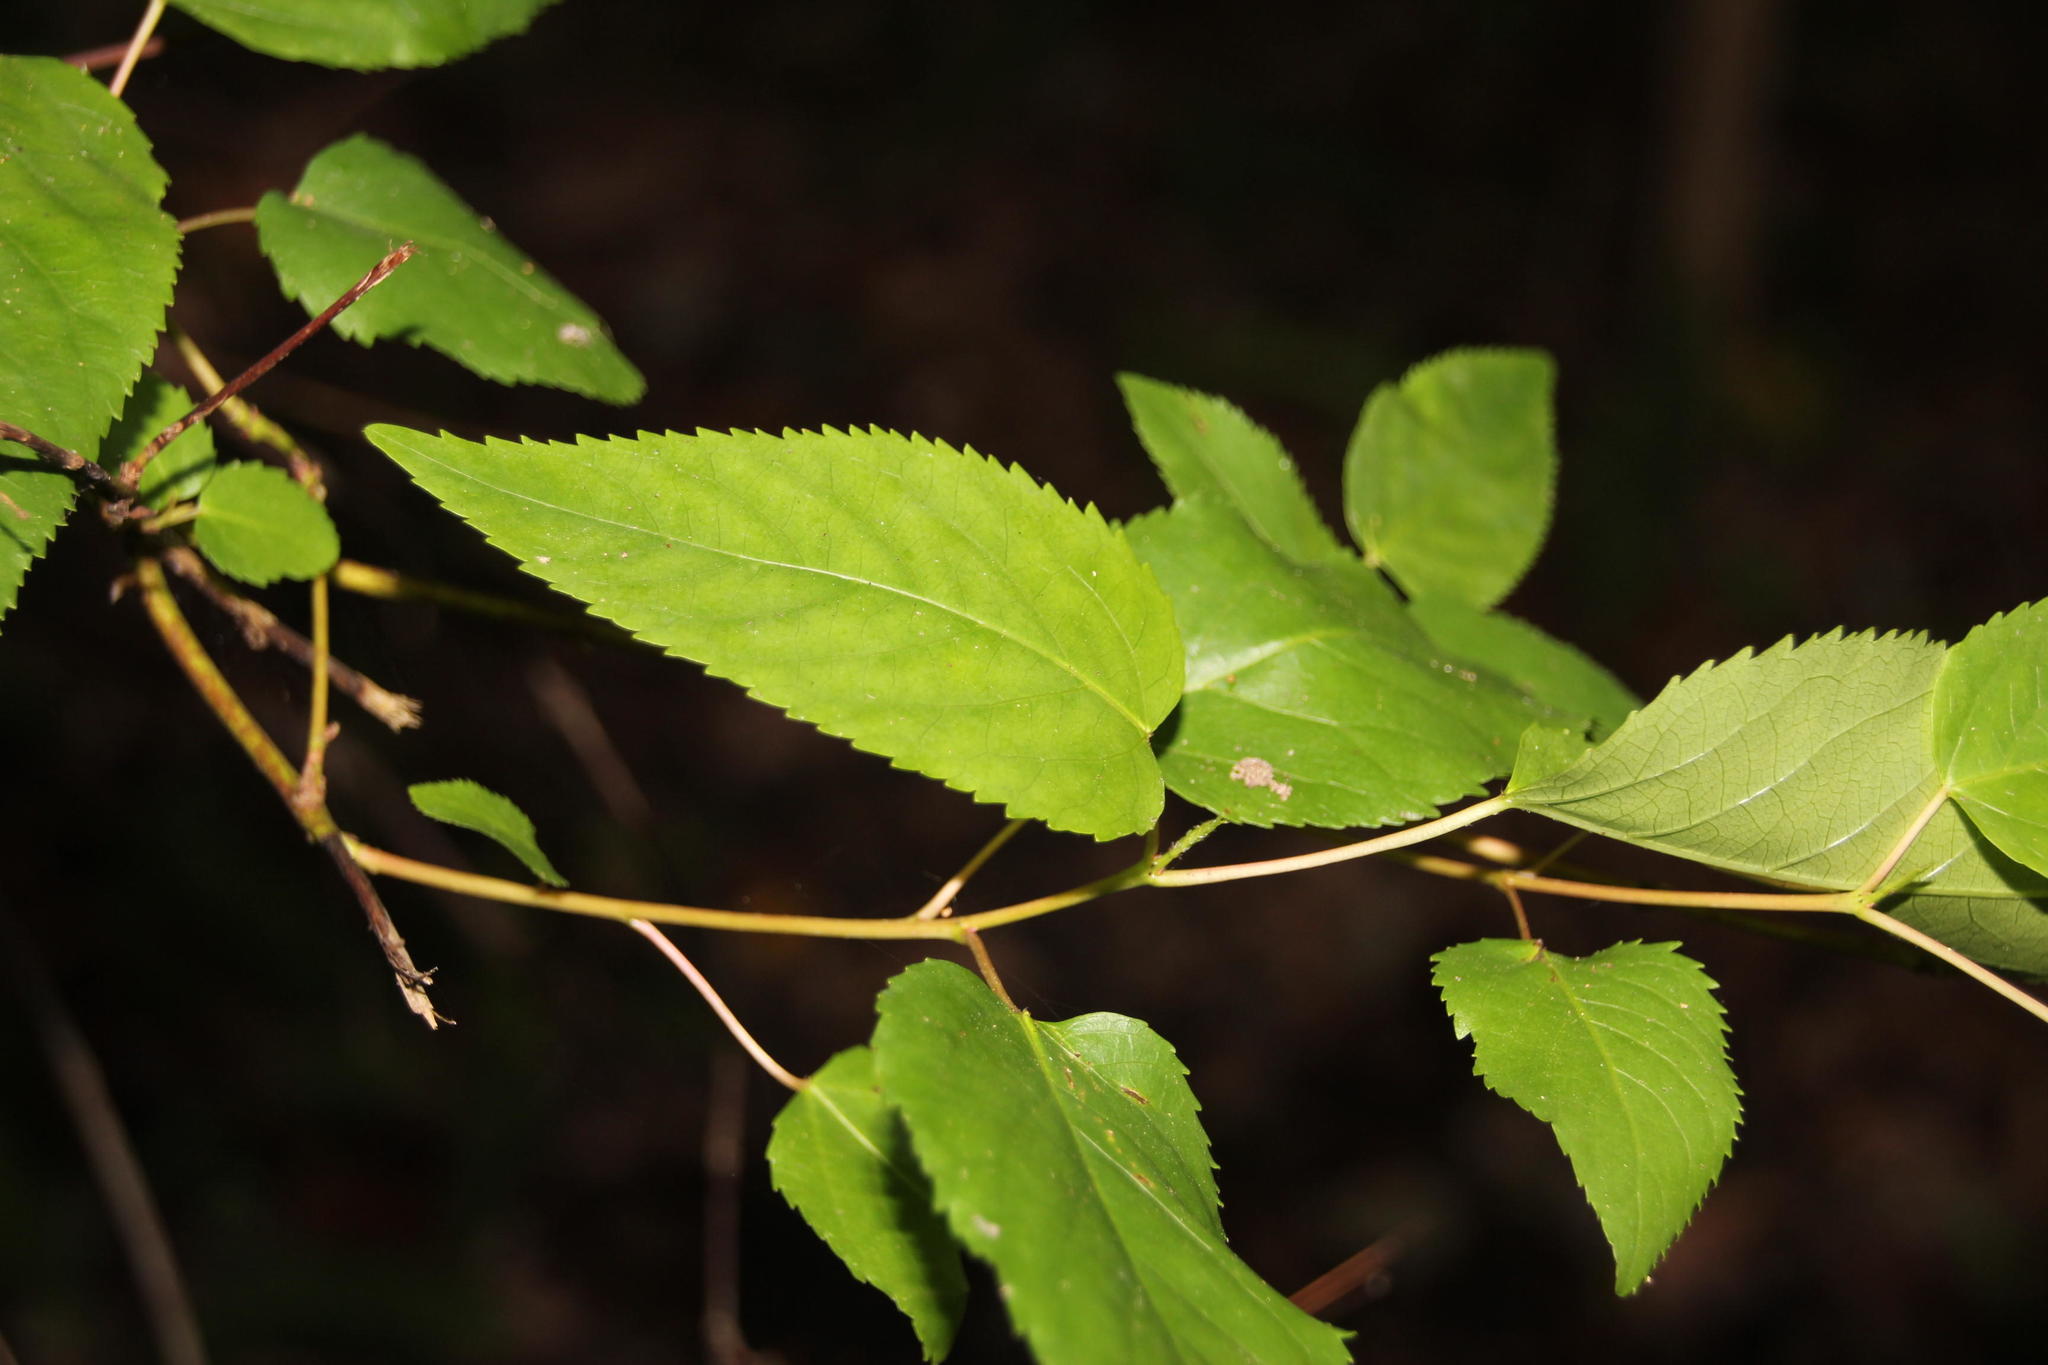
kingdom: Plantae
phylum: Tracheophyta
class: Magnoliopsida
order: Oxalidales
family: Elaeocarpaceae
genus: Aristotelia
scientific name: Aristotelia chilensis
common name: Maquei
